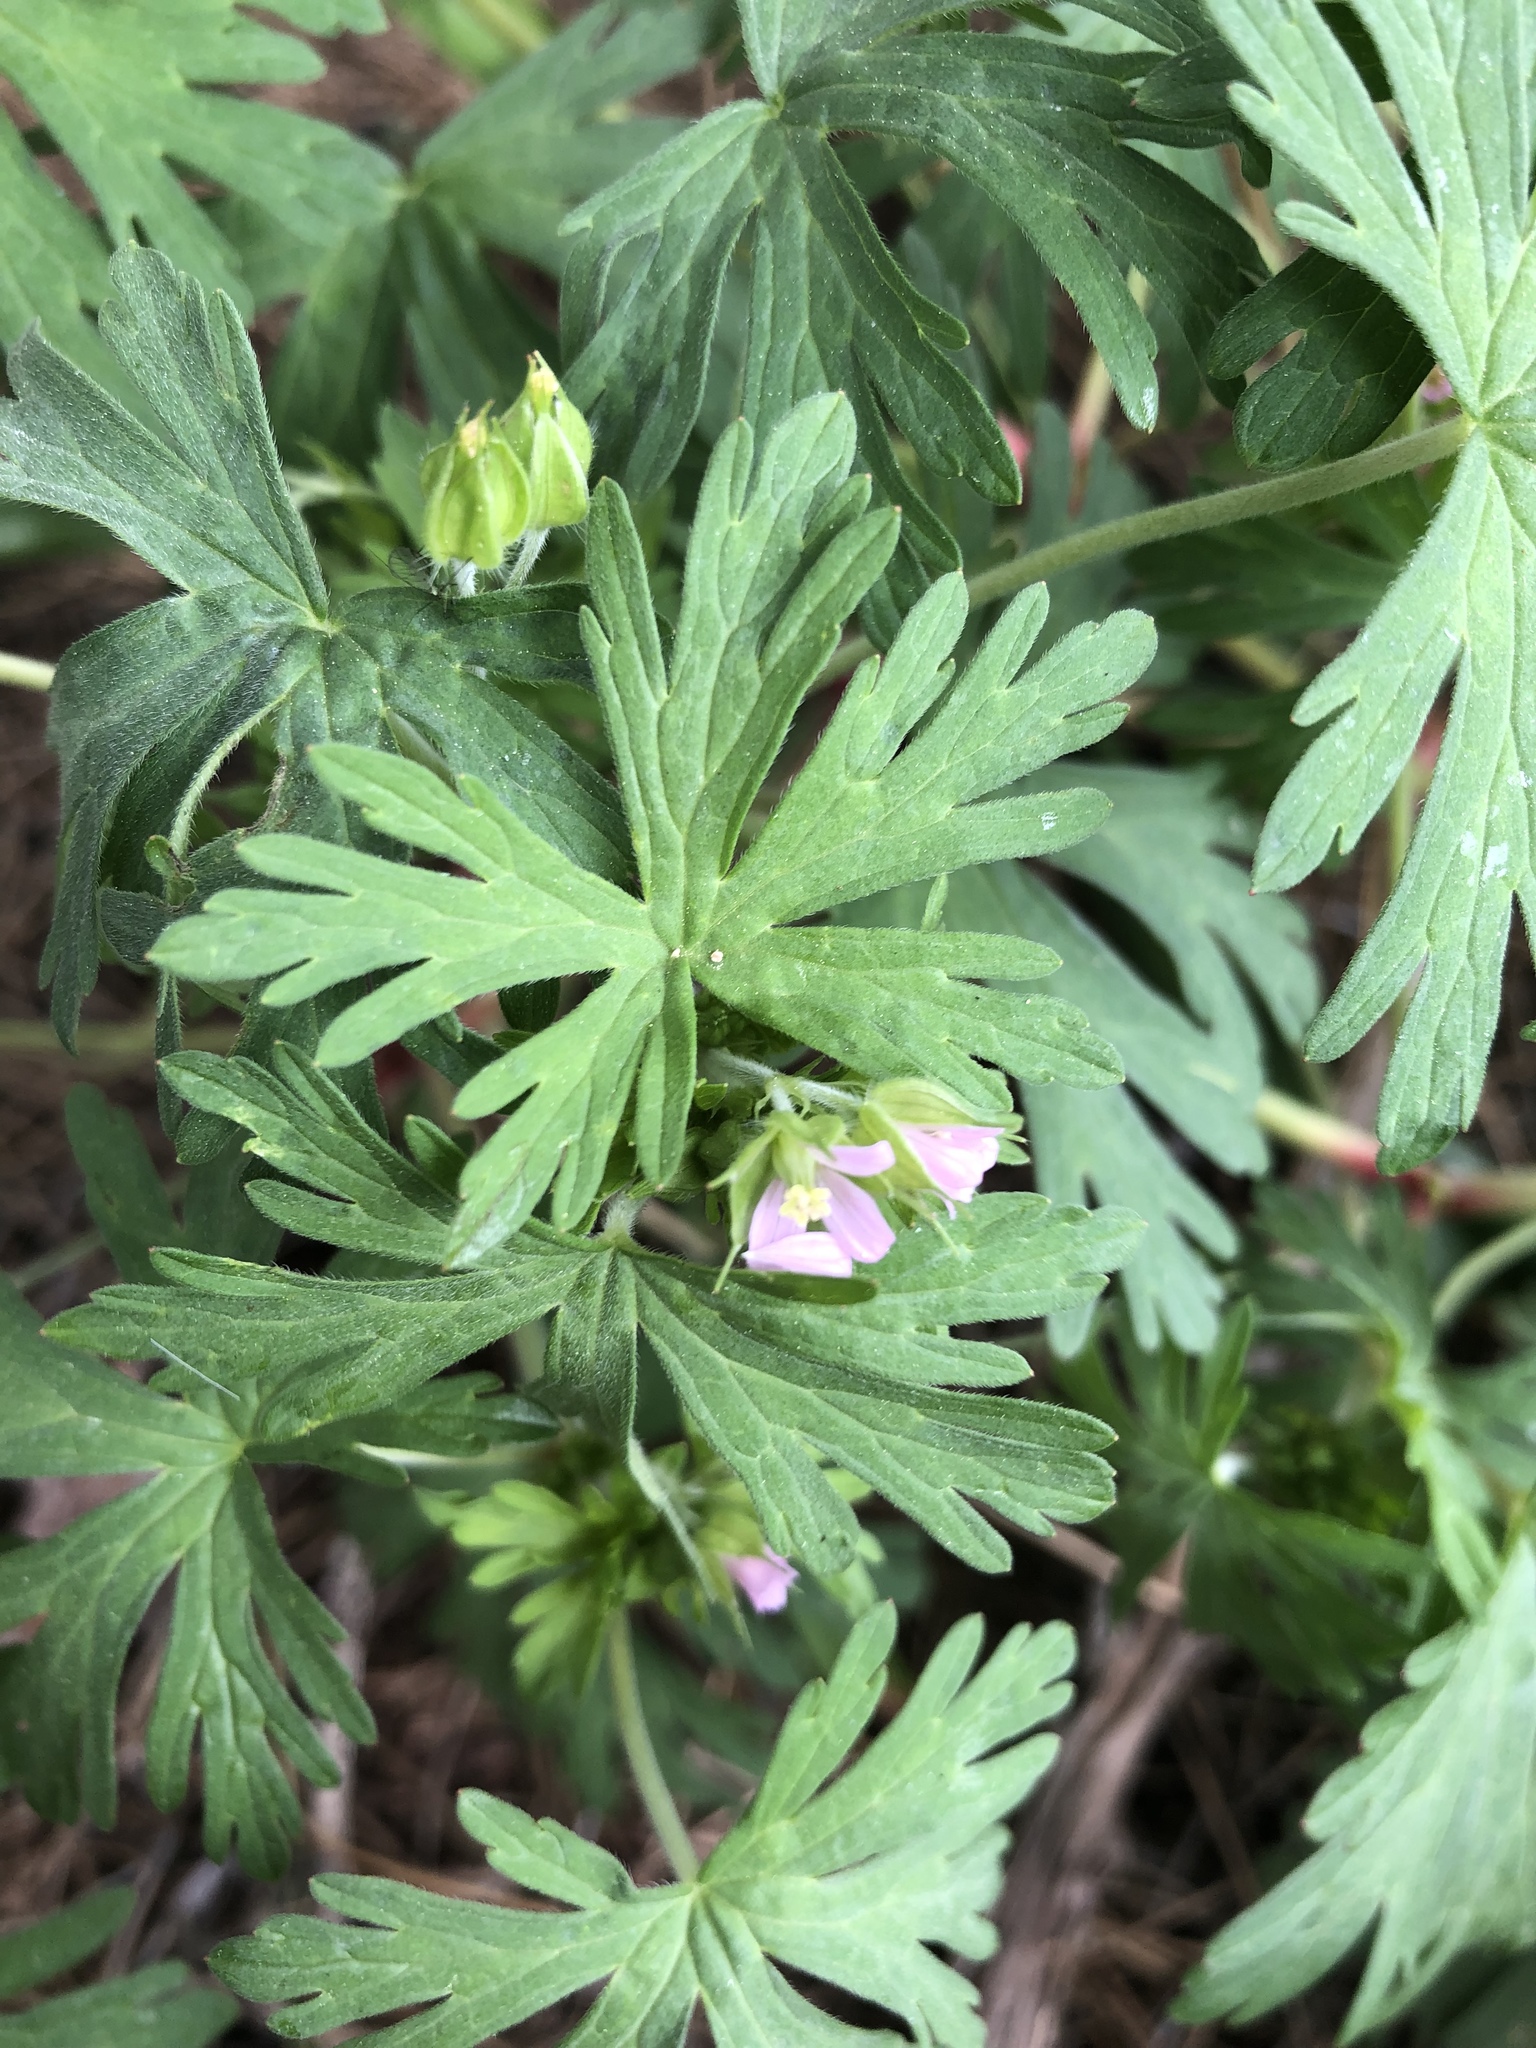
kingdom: Plantae
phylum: Tracheophyta
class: Magnoliopsida
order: Geraniales
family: Geraniaceae
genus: Geranium
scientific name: Geranium carolinianum
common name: Carolina crane's-bill
